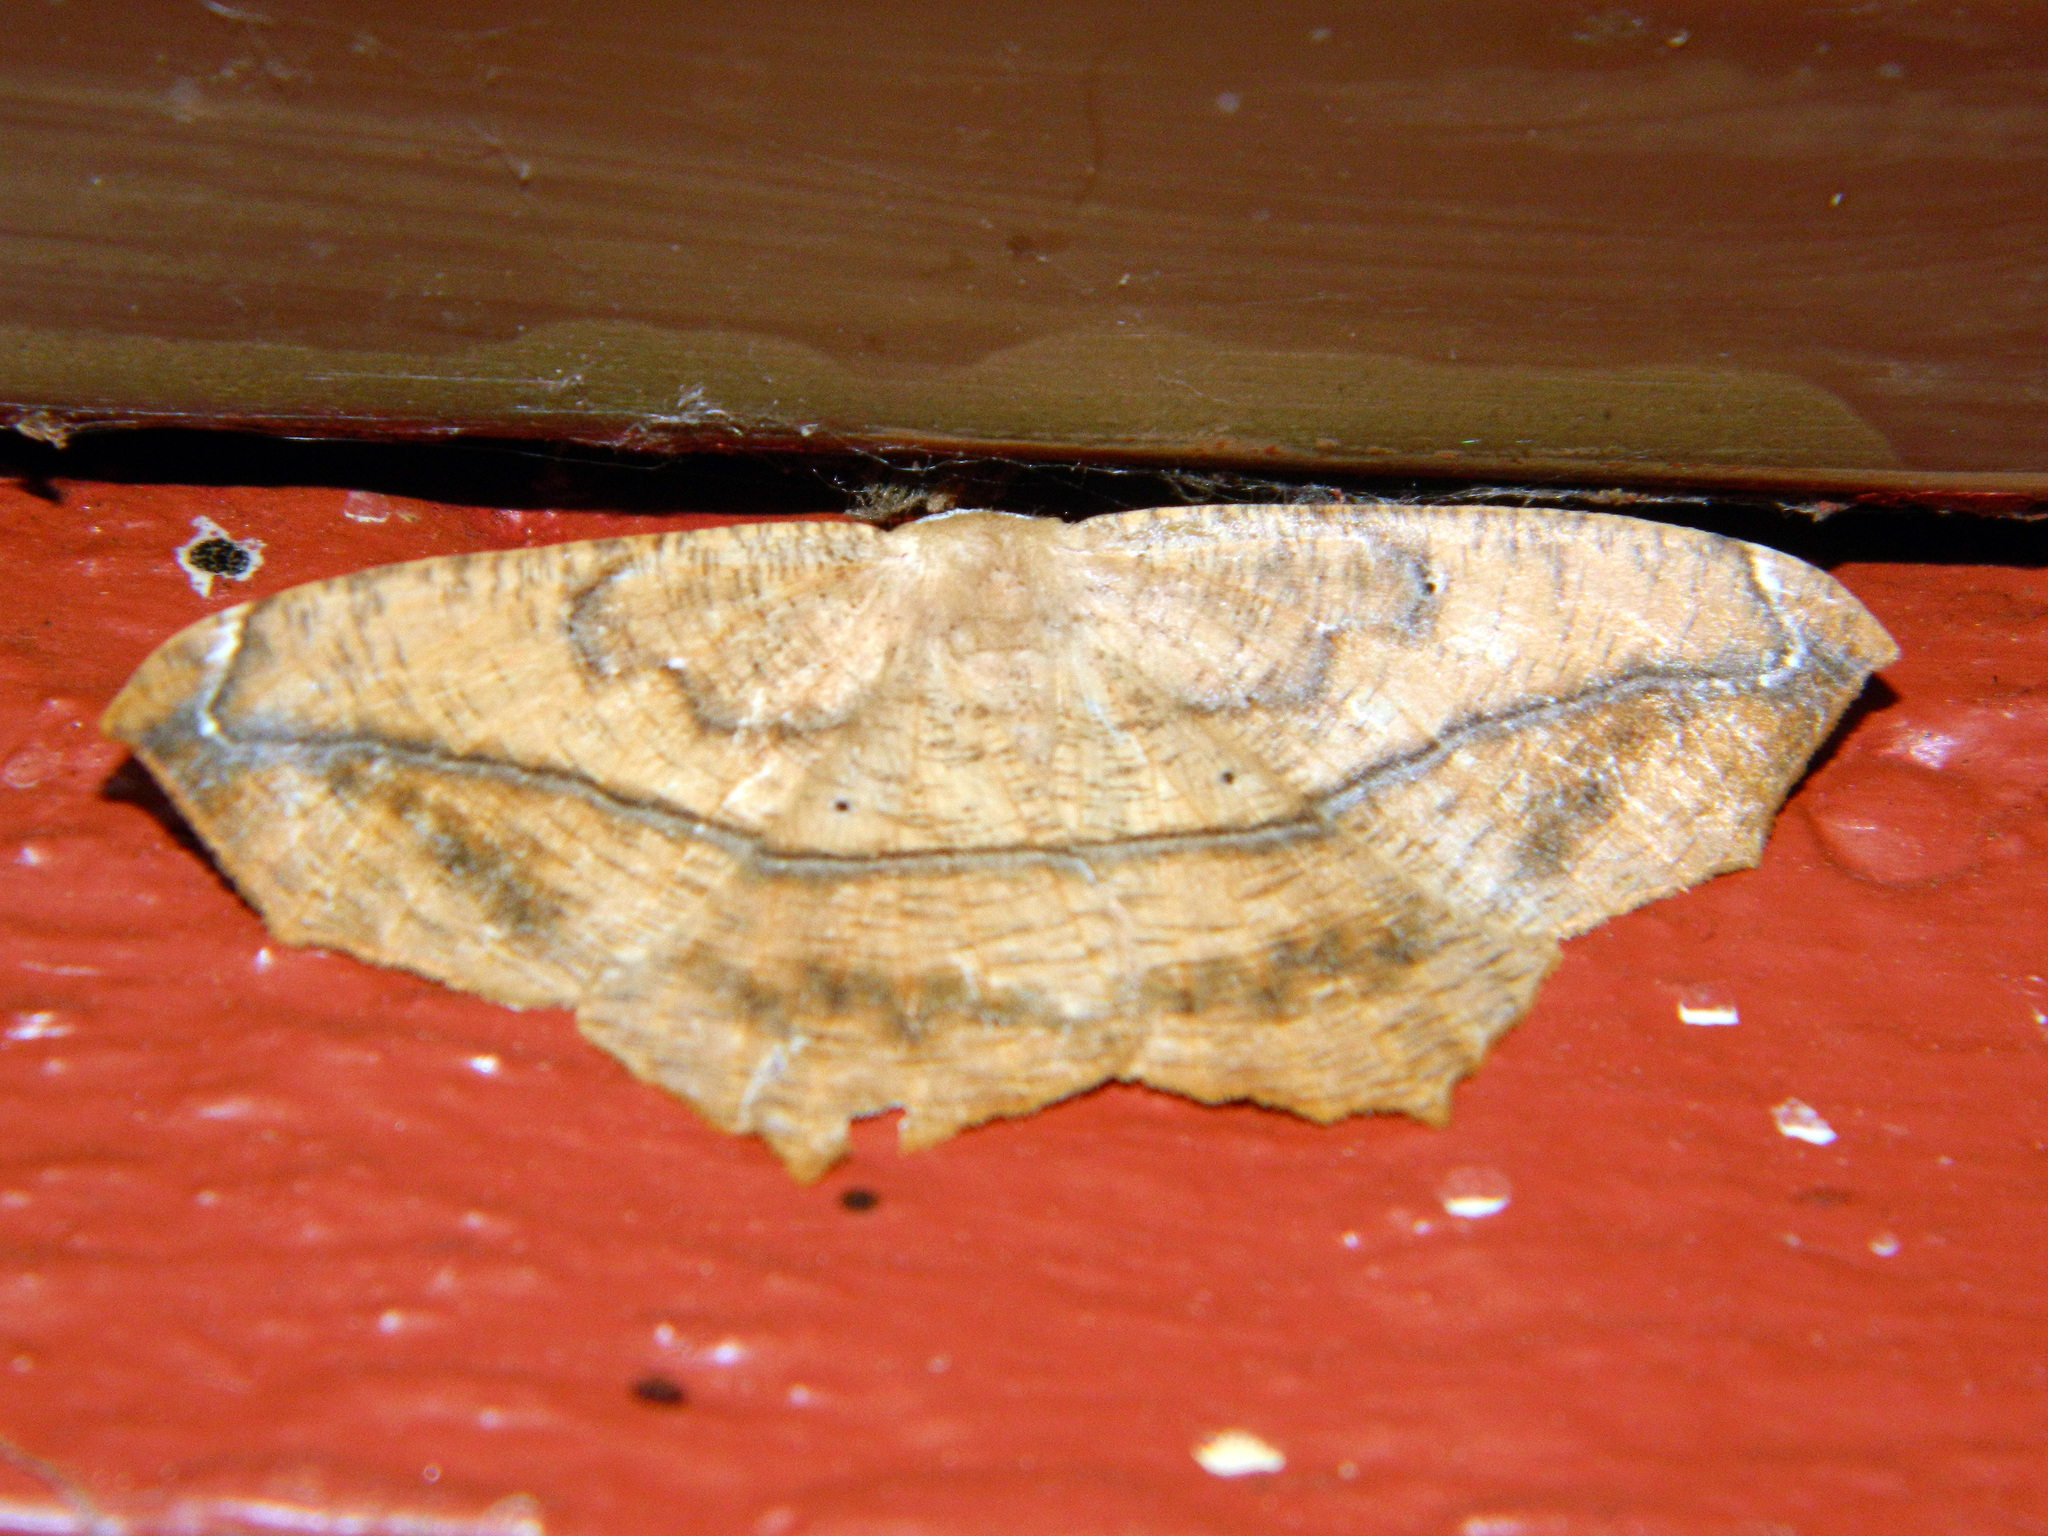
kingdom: Animalia
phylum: Arthropoda
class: Insecta
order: Lepidoptera
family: Geometridae
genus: Prochoerodes
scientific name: Prochoerodes lineola
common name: Large maple spanworm
